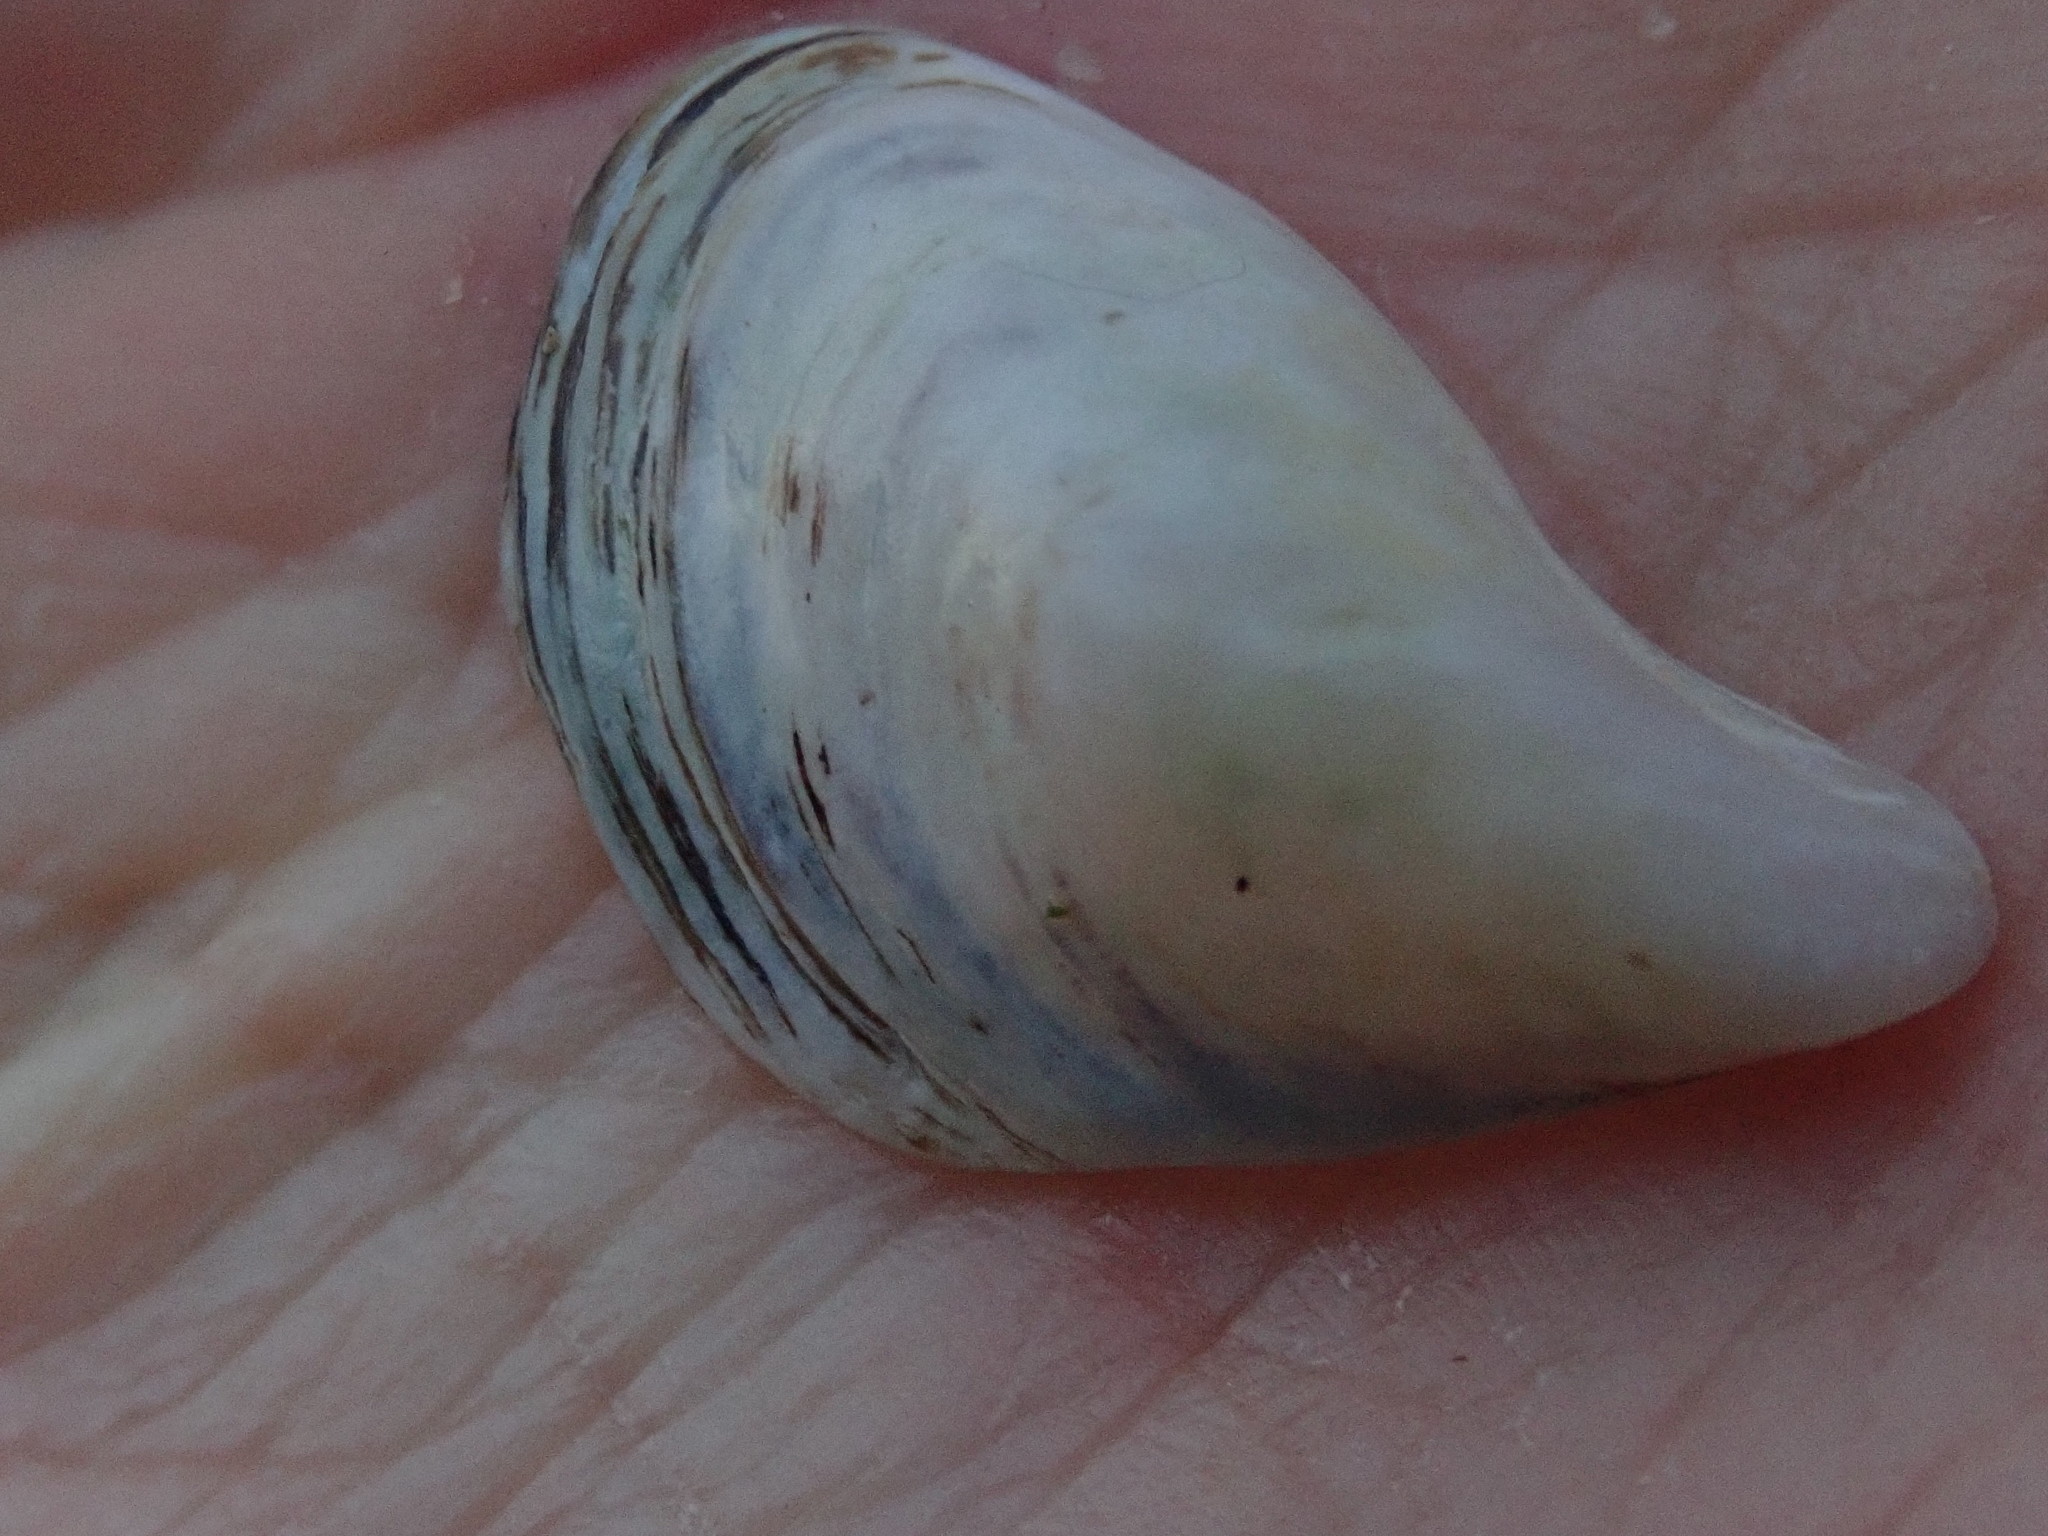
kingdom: Animalia
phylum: Mollusca
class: Bivalvia
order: Myida
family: Dreissenidae
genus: Dreissena
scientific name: Dreissena bugensis
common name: Quagga mussel
